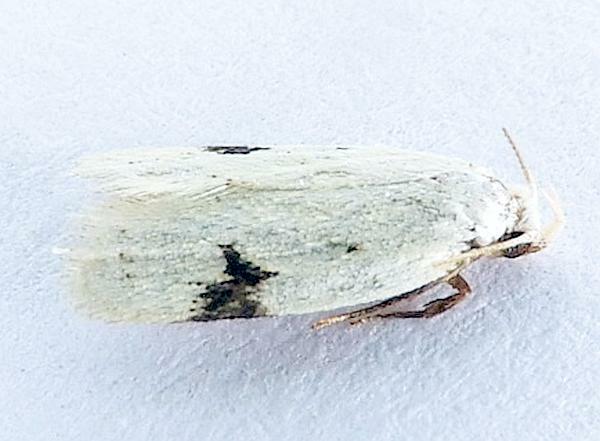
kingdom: Animalia
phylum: Arthropoda
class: Insecta
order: Lepidoptera
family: Oecophoridae
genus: Inga
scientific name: Inga sparsiciliella
